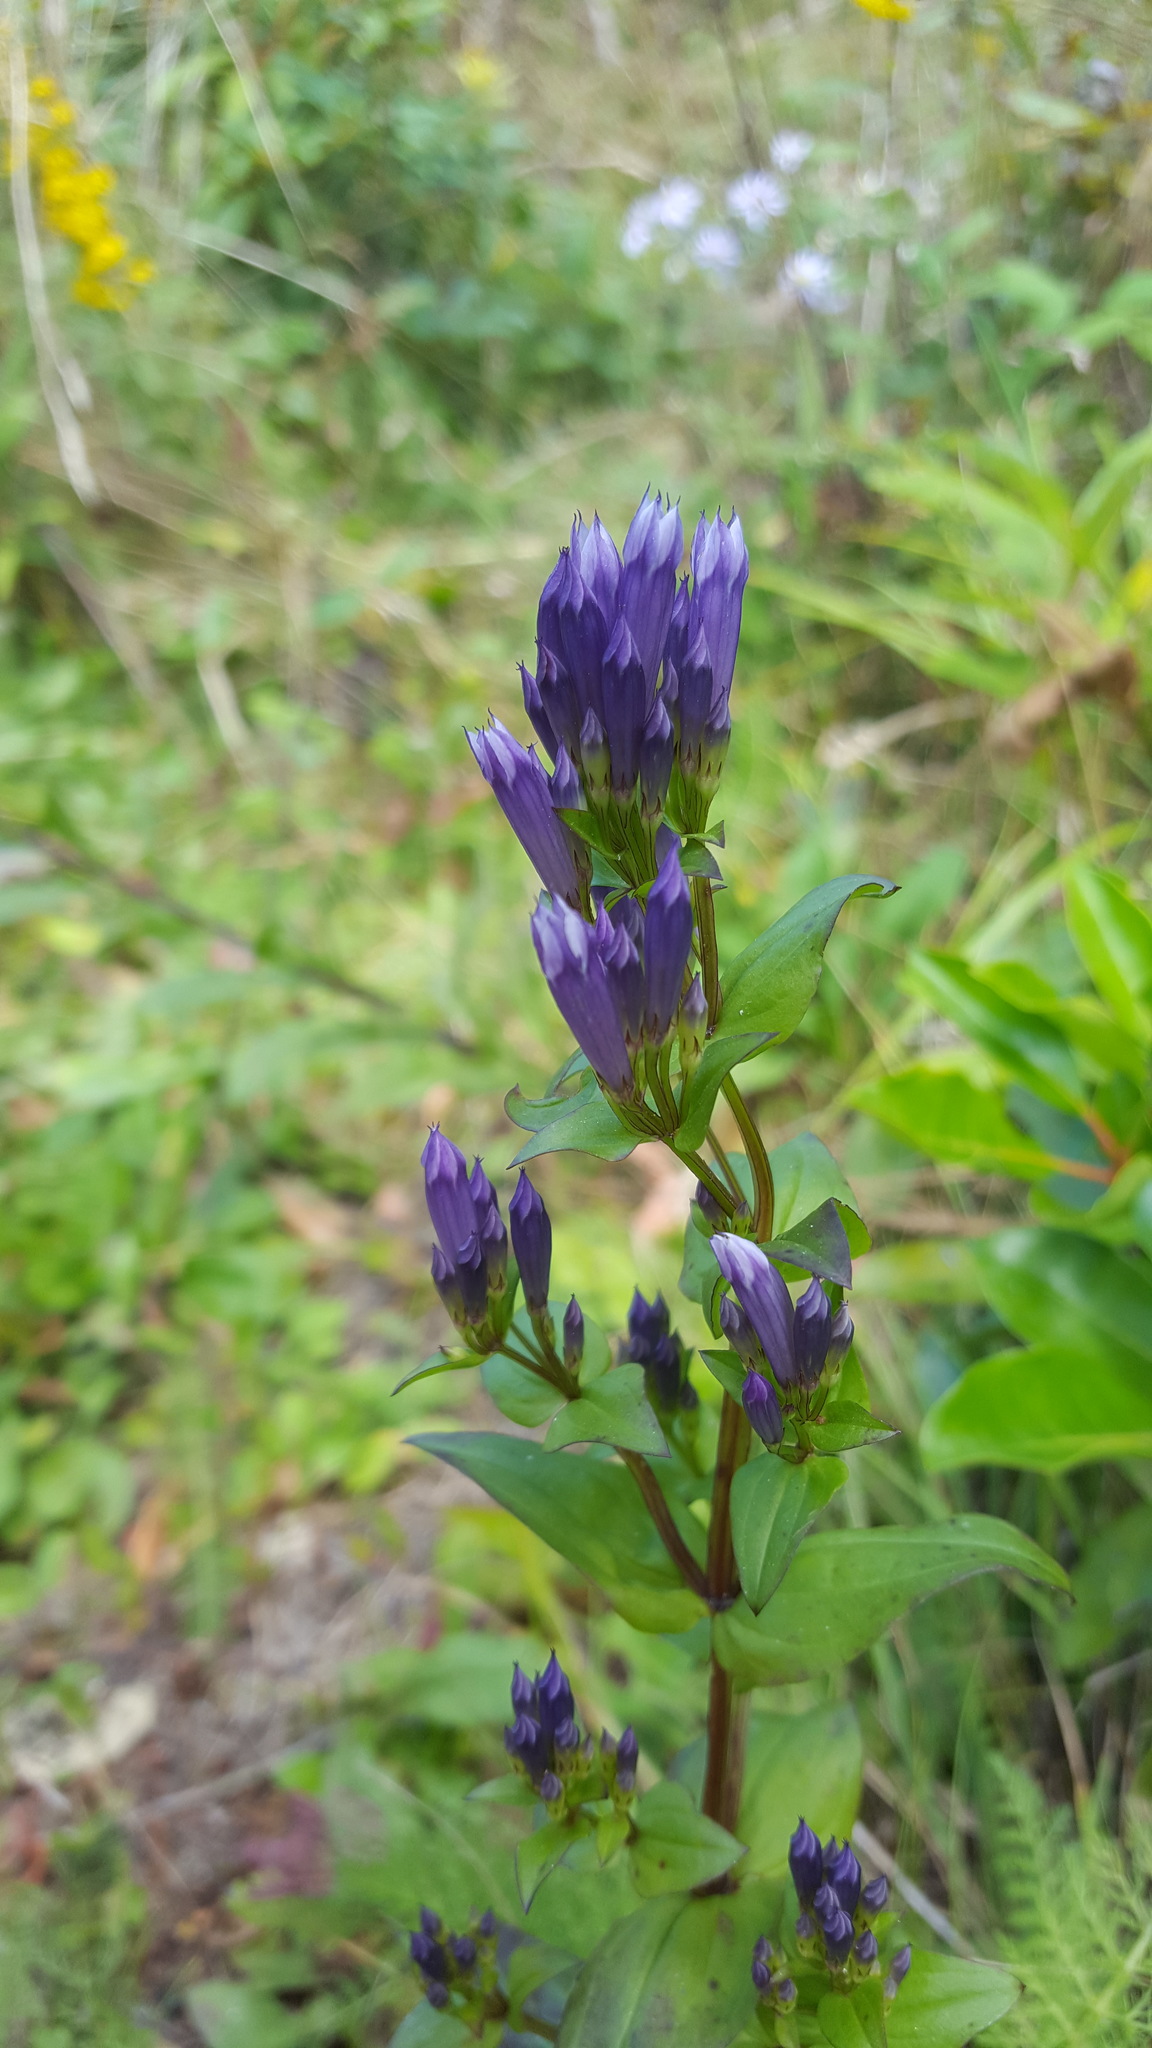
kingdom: Plantae
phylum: Tracheophyta
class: Magnoliopsida
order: Gentianales
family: Gentianaceae
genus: Gentianella
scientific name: Gentianella quinquefolia
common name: Agueweed
